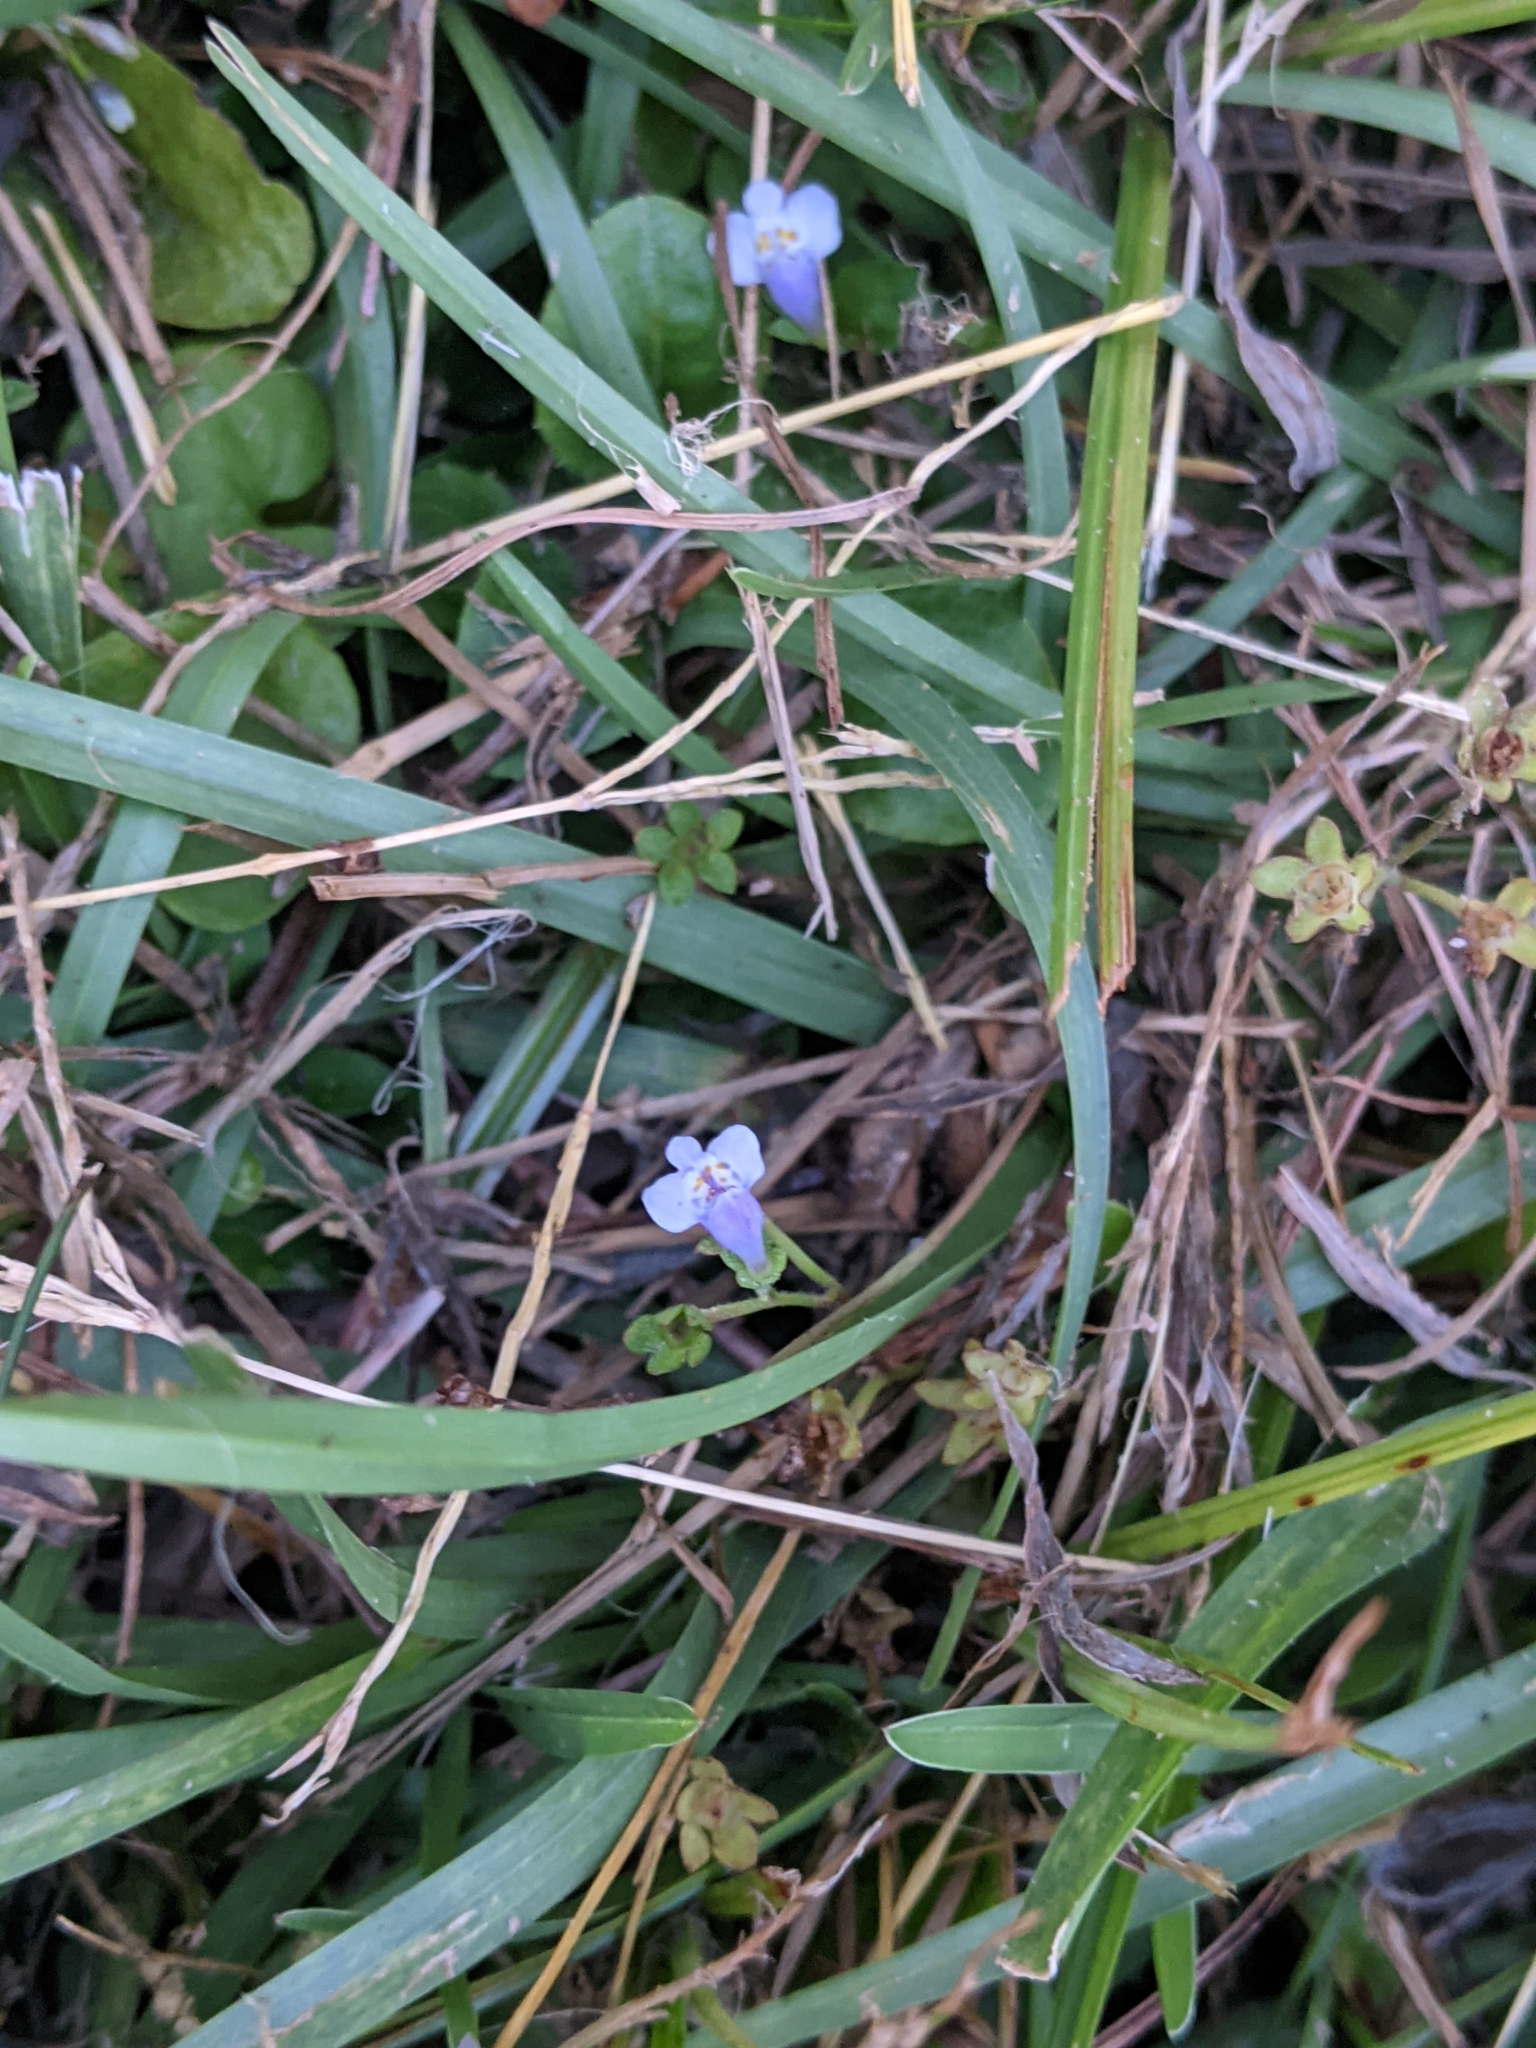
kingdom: Plantae
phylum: Tracheophyta
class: Magnoliopsida
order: Lamiales
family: Mazaceae
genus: Mazus
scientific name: Mazus pumilus
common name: Japanese mazus
